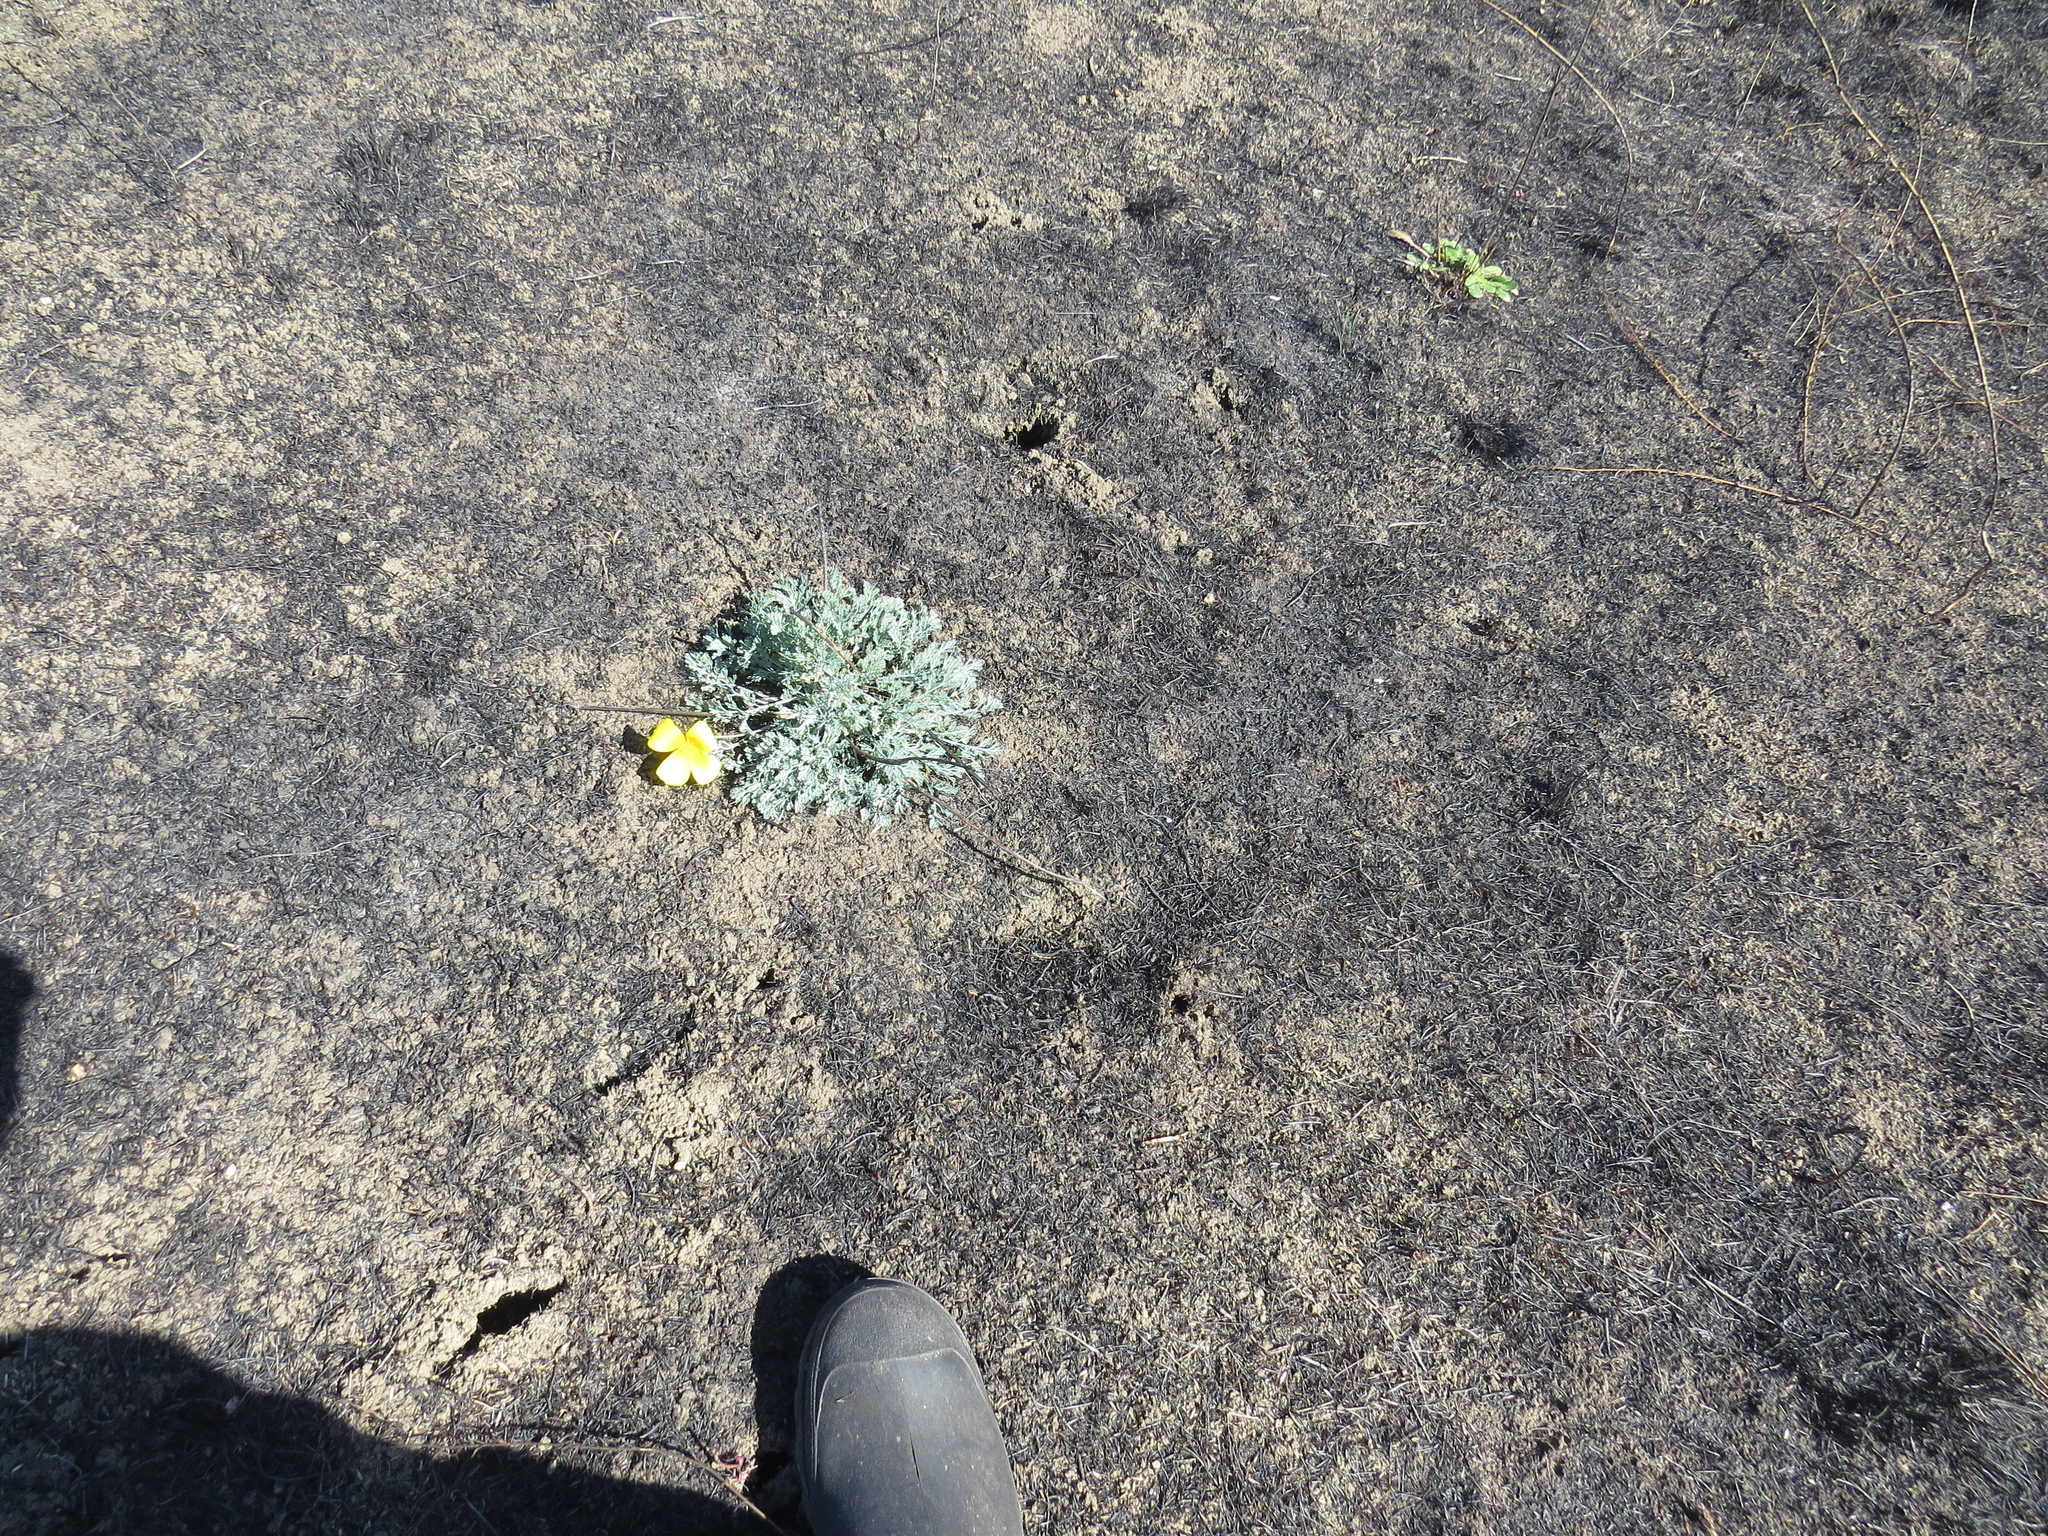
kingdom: Plantae
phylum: Tracheophyta
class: Magnoliopsida
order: Ranunculales
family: Papaveraceae
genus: Eschscholzia
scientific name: Eschscholzia californica
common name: California poppy
